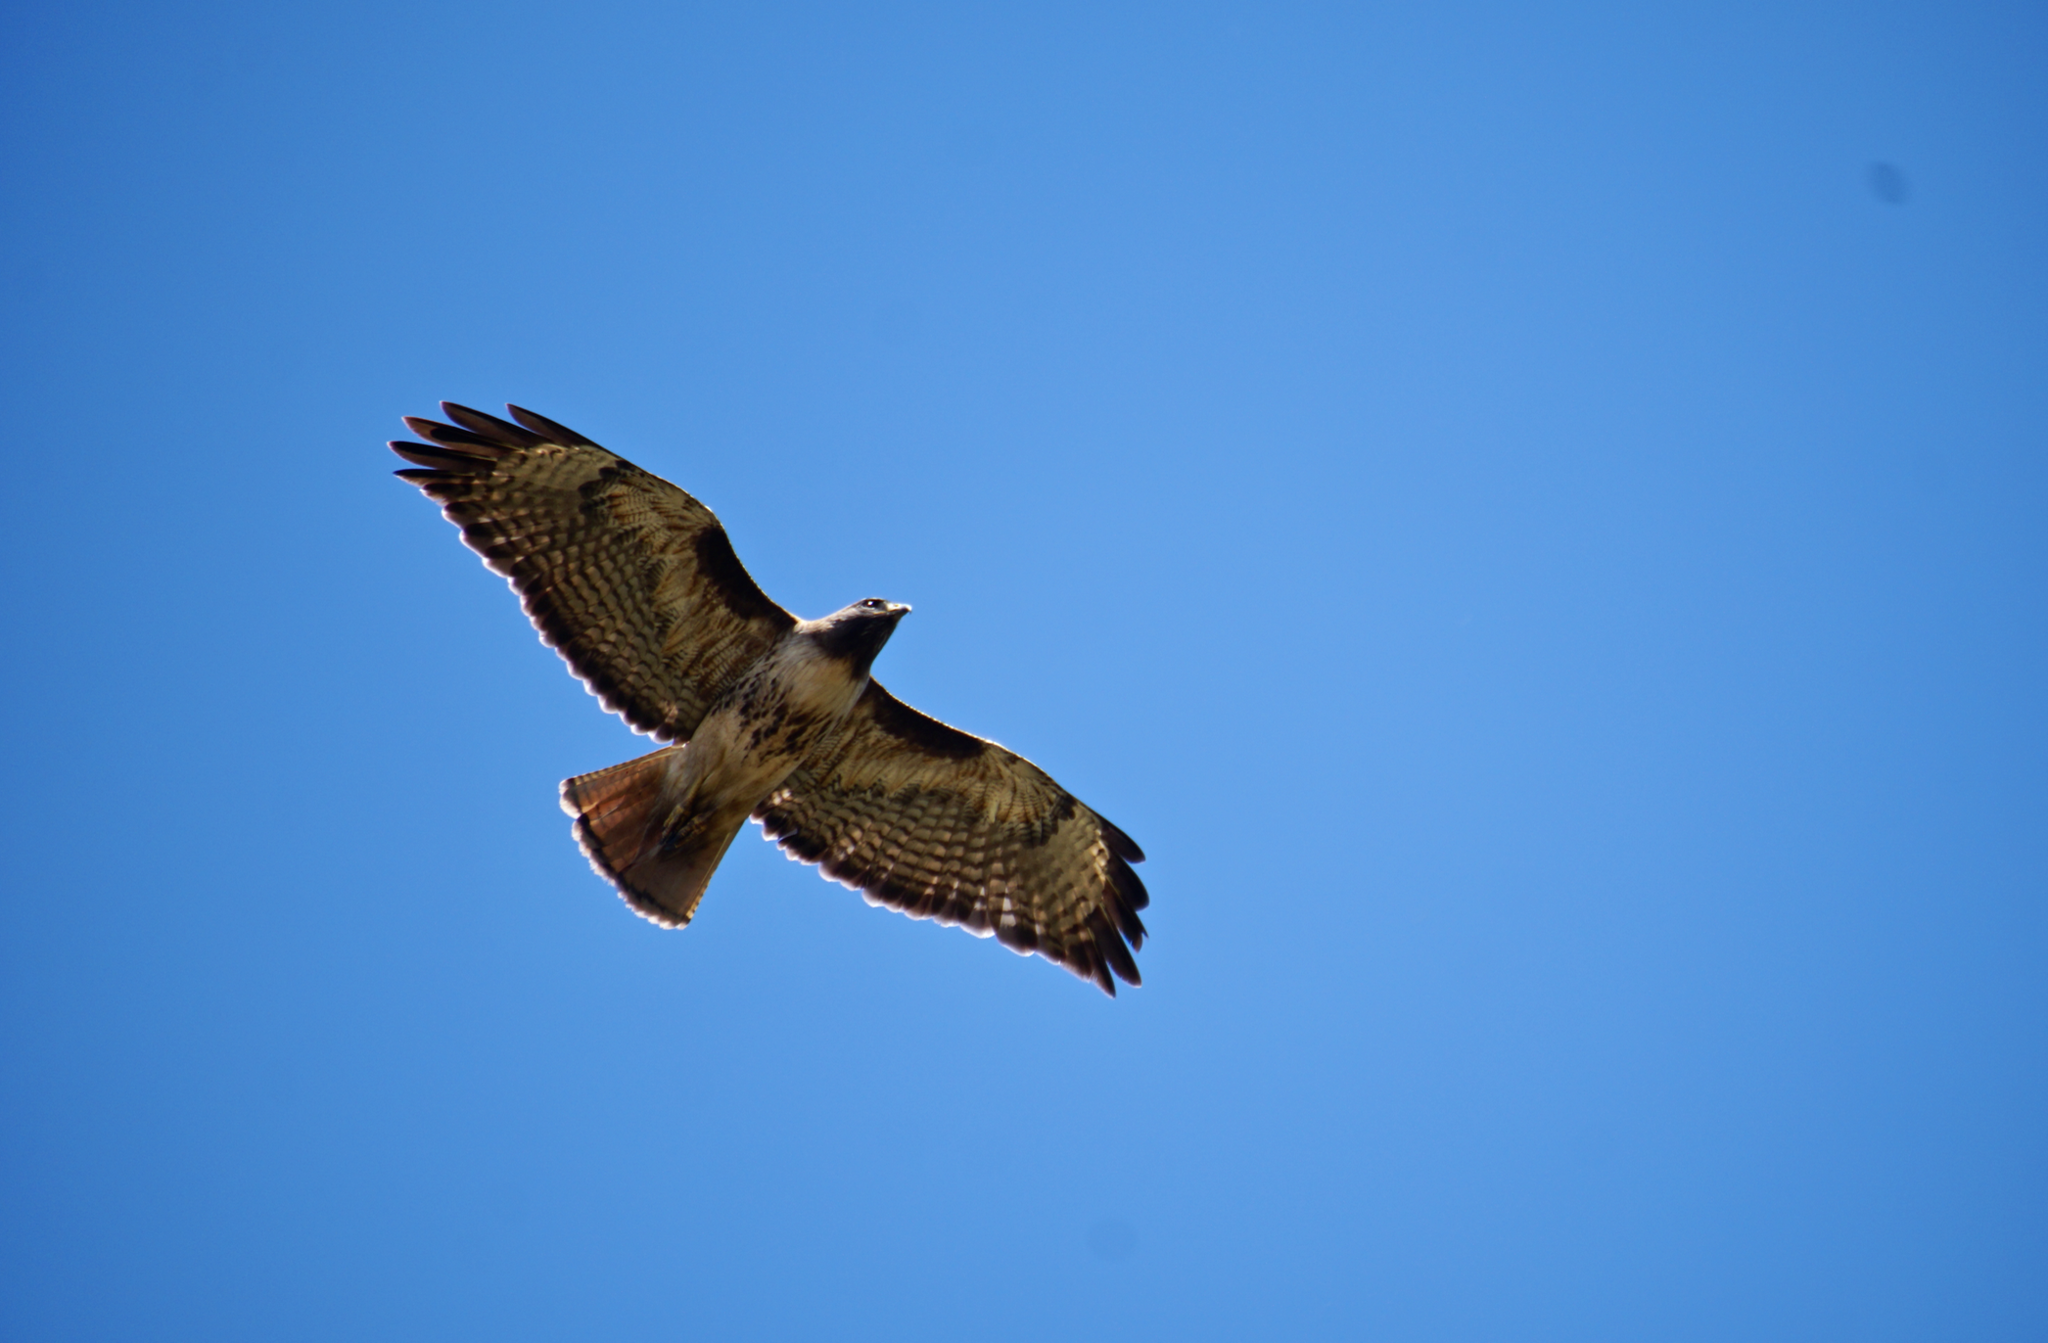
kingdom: Animalia
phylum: Chordata
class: Aves
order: Accipitriformes
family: Accipitridae
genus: Buteo
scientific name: Buteo jamaicensis
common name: Red-tailed hawk
